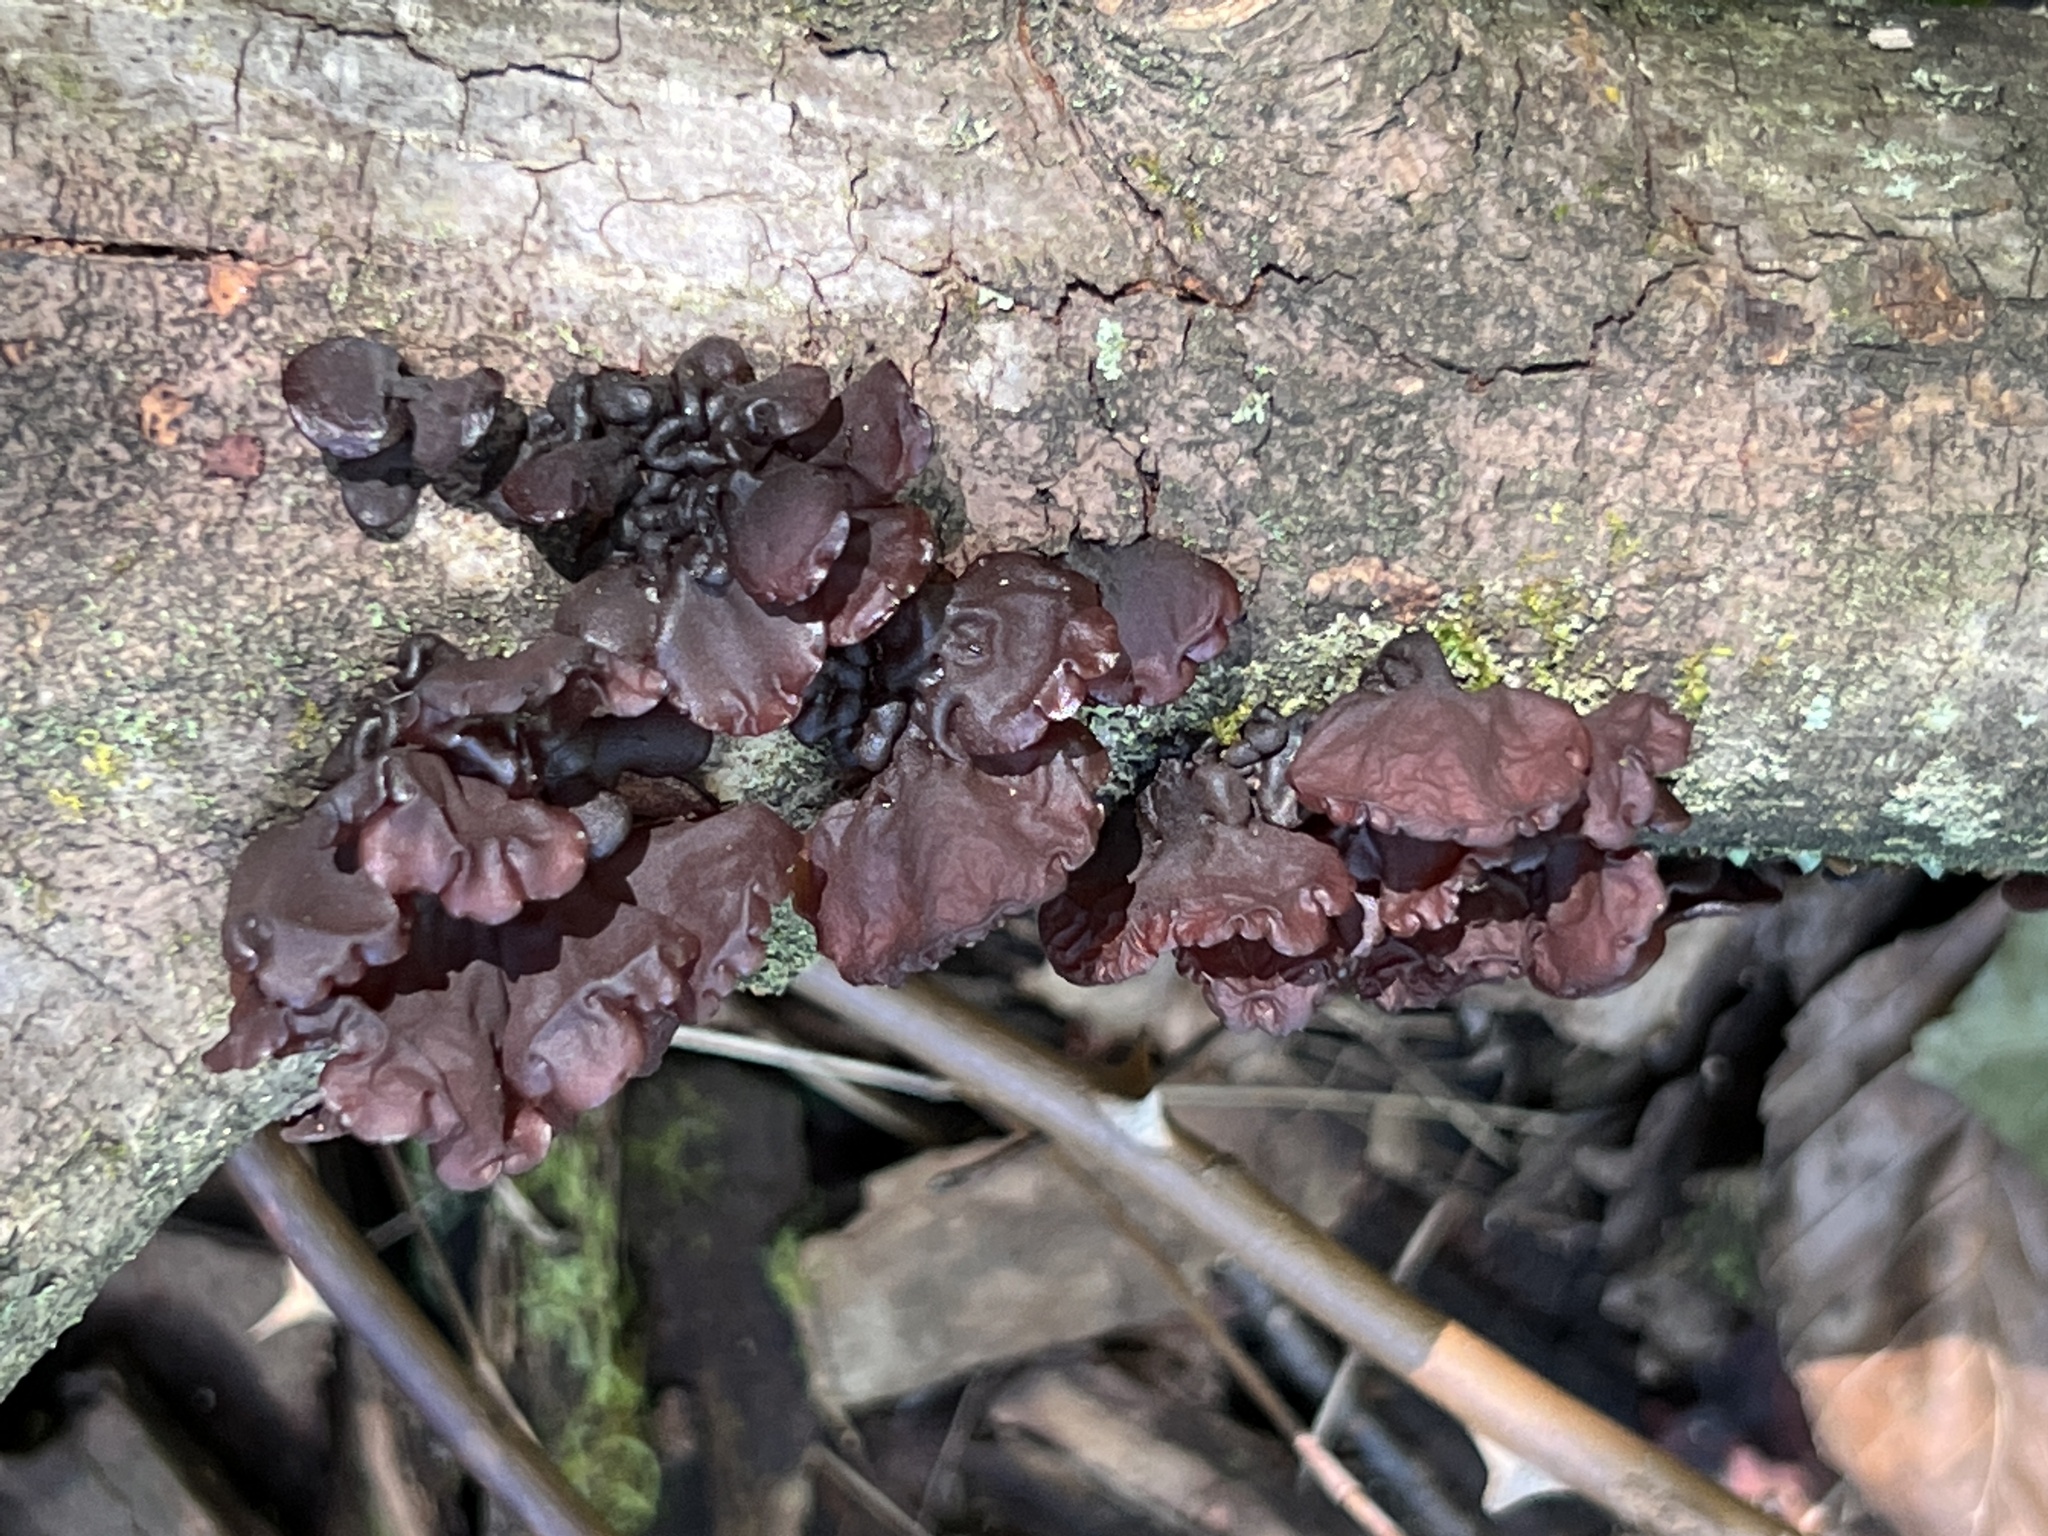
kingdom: Fungi
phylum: Basidiomycota
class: Agaricomycetes
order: Auriculariales
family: Auriculariaceae
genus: Exidia
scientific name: Exidia
